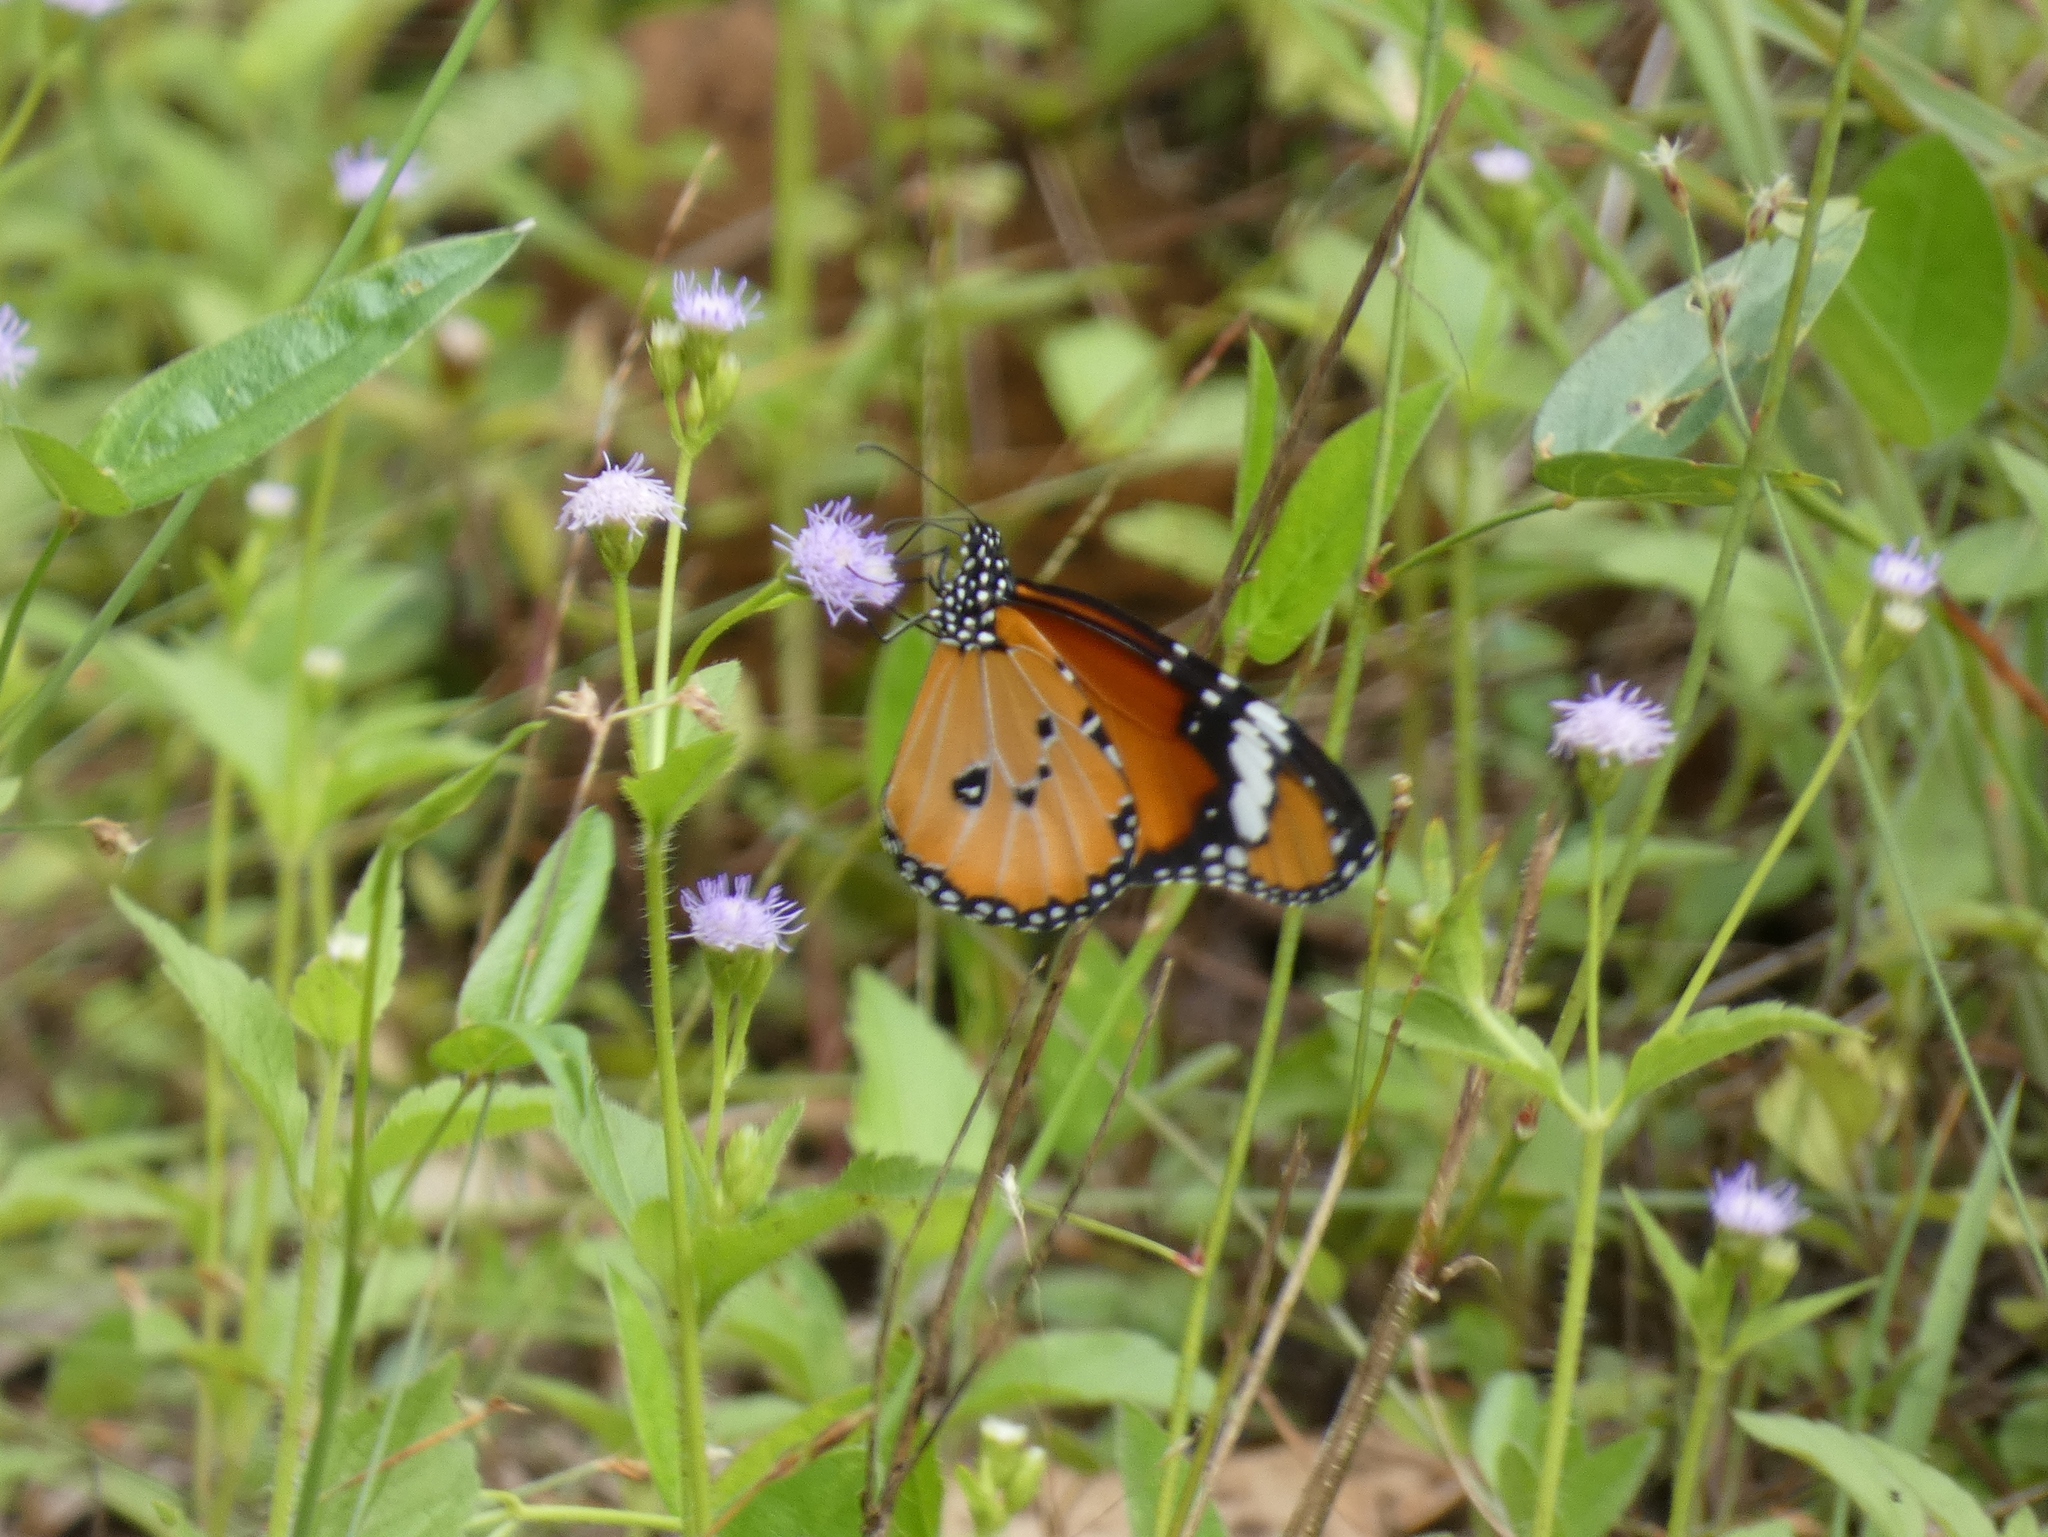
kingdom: Animalia
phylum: Arthropoda
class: Insecta
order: Lepidoptera
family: Nymphalidae
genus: Danaus
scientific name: Danaus chrysippus
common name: Plain tiger
